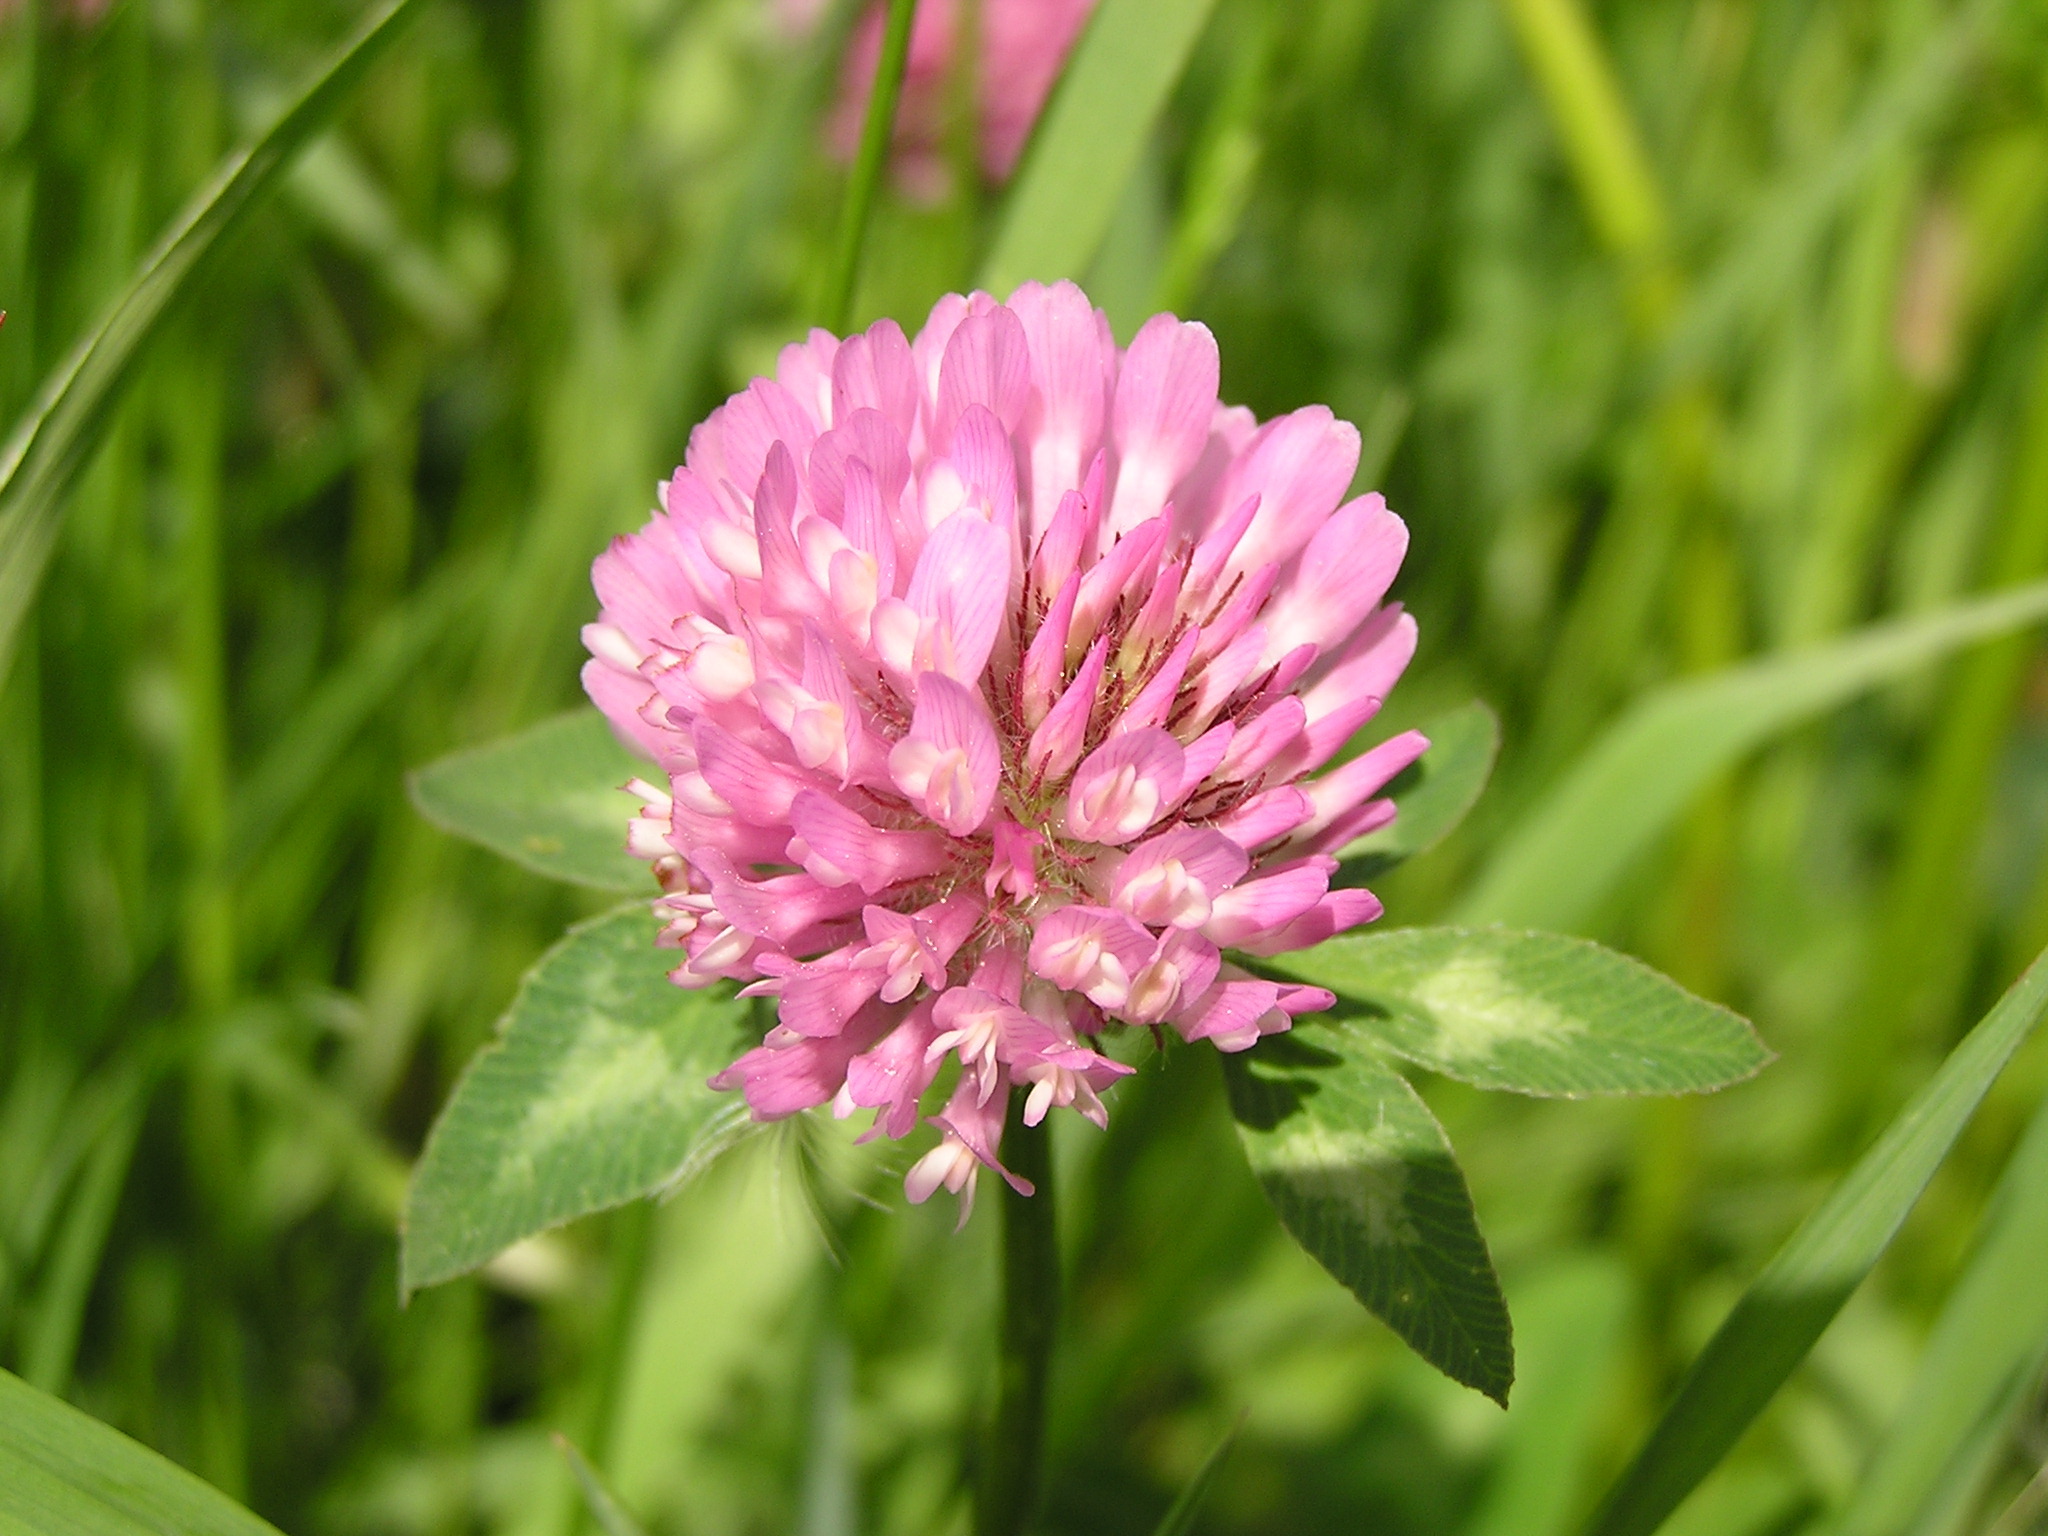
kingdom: Plantae
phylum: Tracheophyta
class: Magnoliopsida
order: Fabales
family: Fabaceae
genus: Trifolium
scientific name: Trifolium pratense
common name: Red clover
